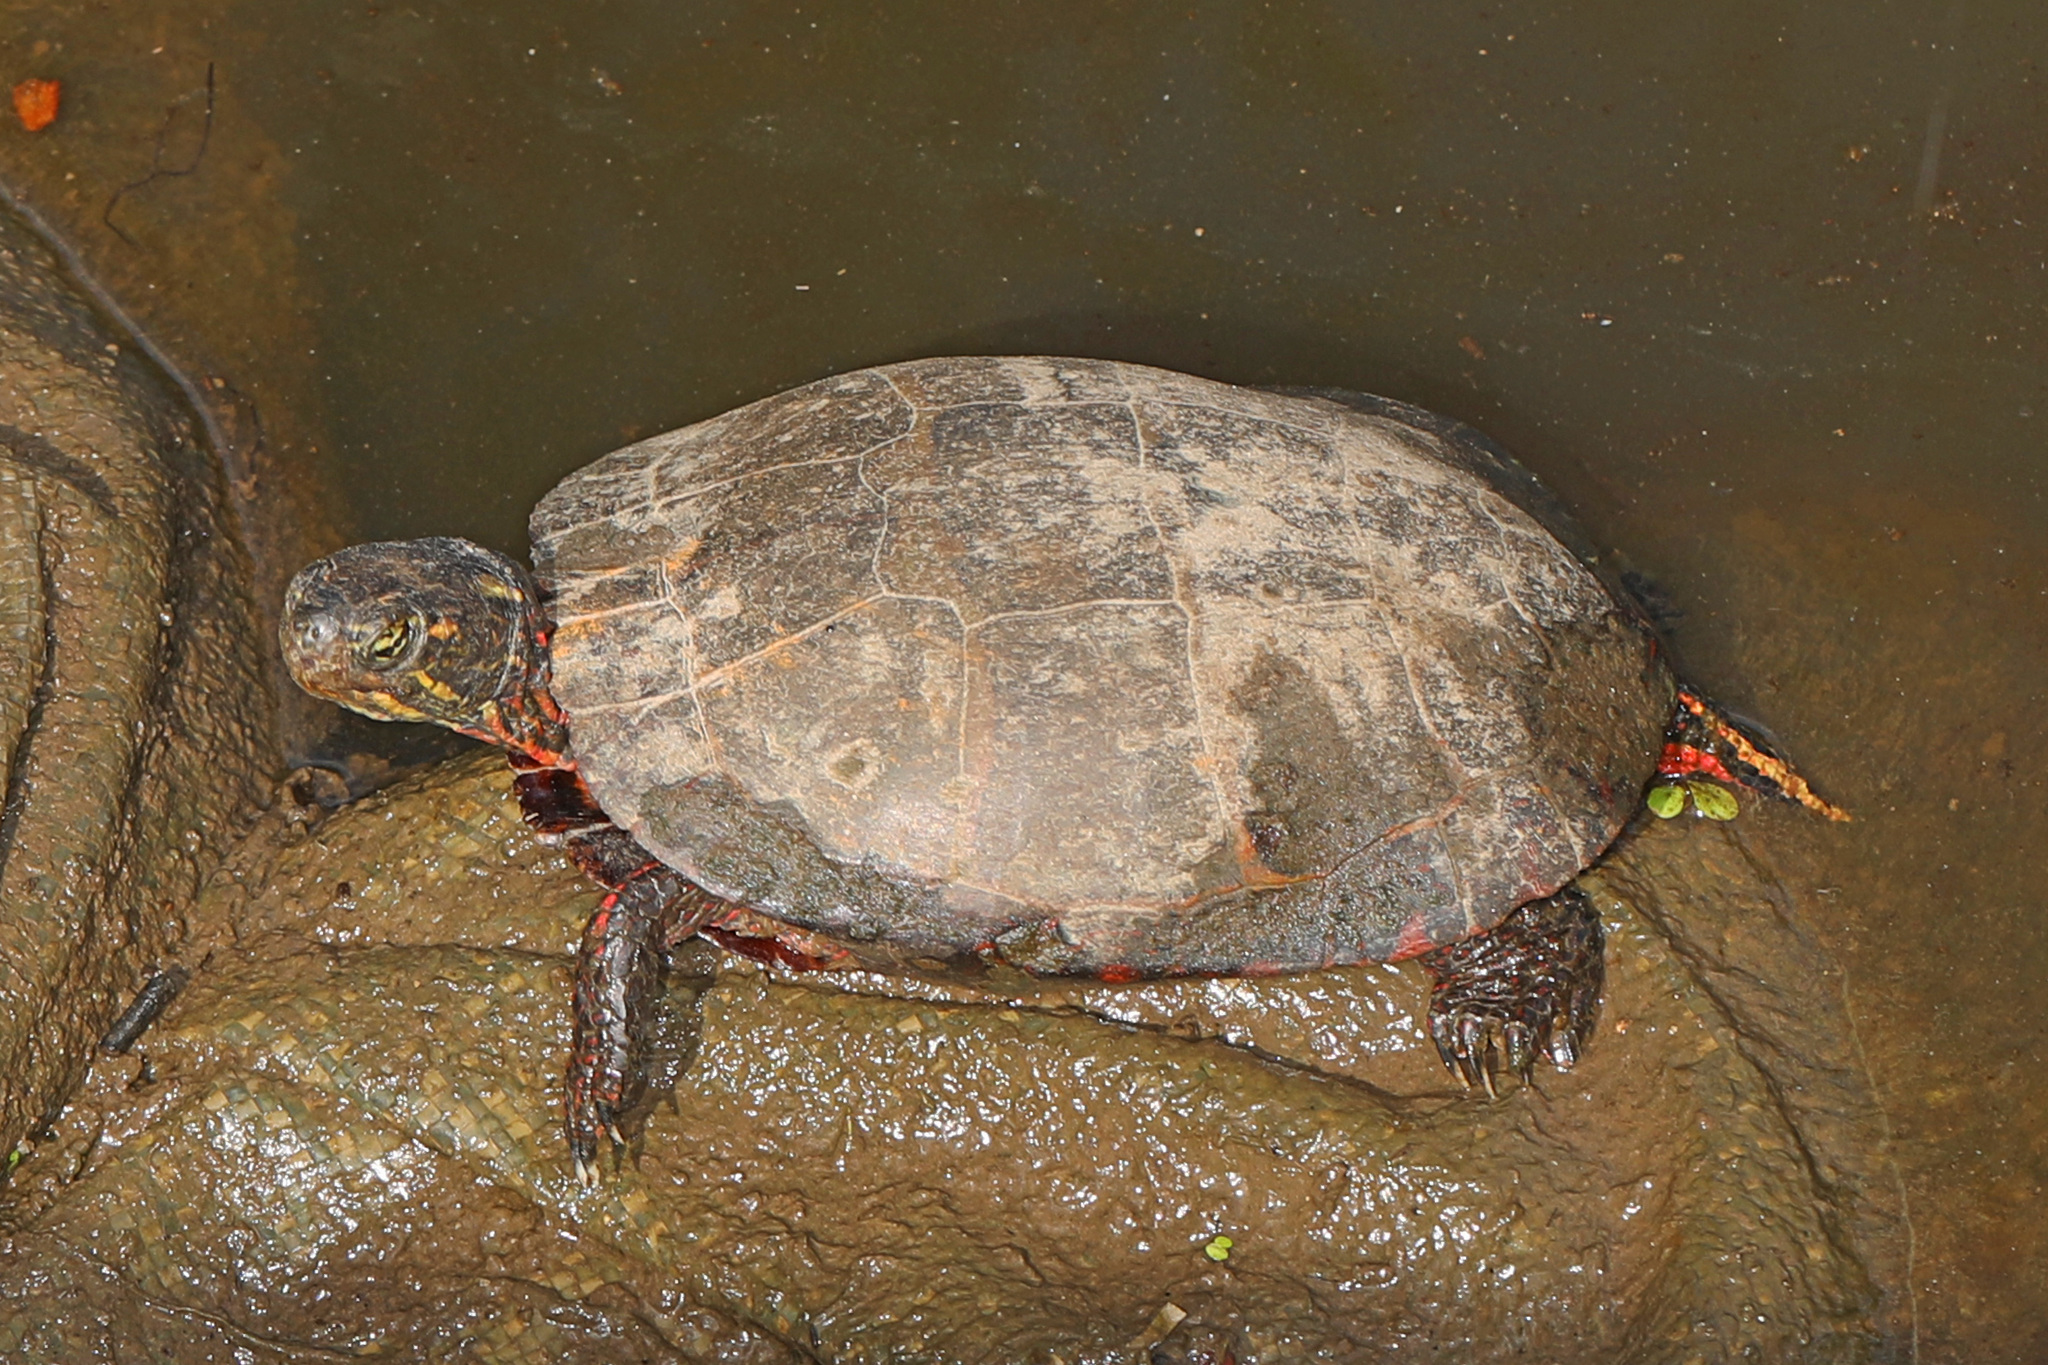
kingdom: Animalia
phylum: Chordata
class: Testudines
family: Emydidae
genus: Chrysemys
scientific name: Chrysemys picta
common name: Painted turtle
